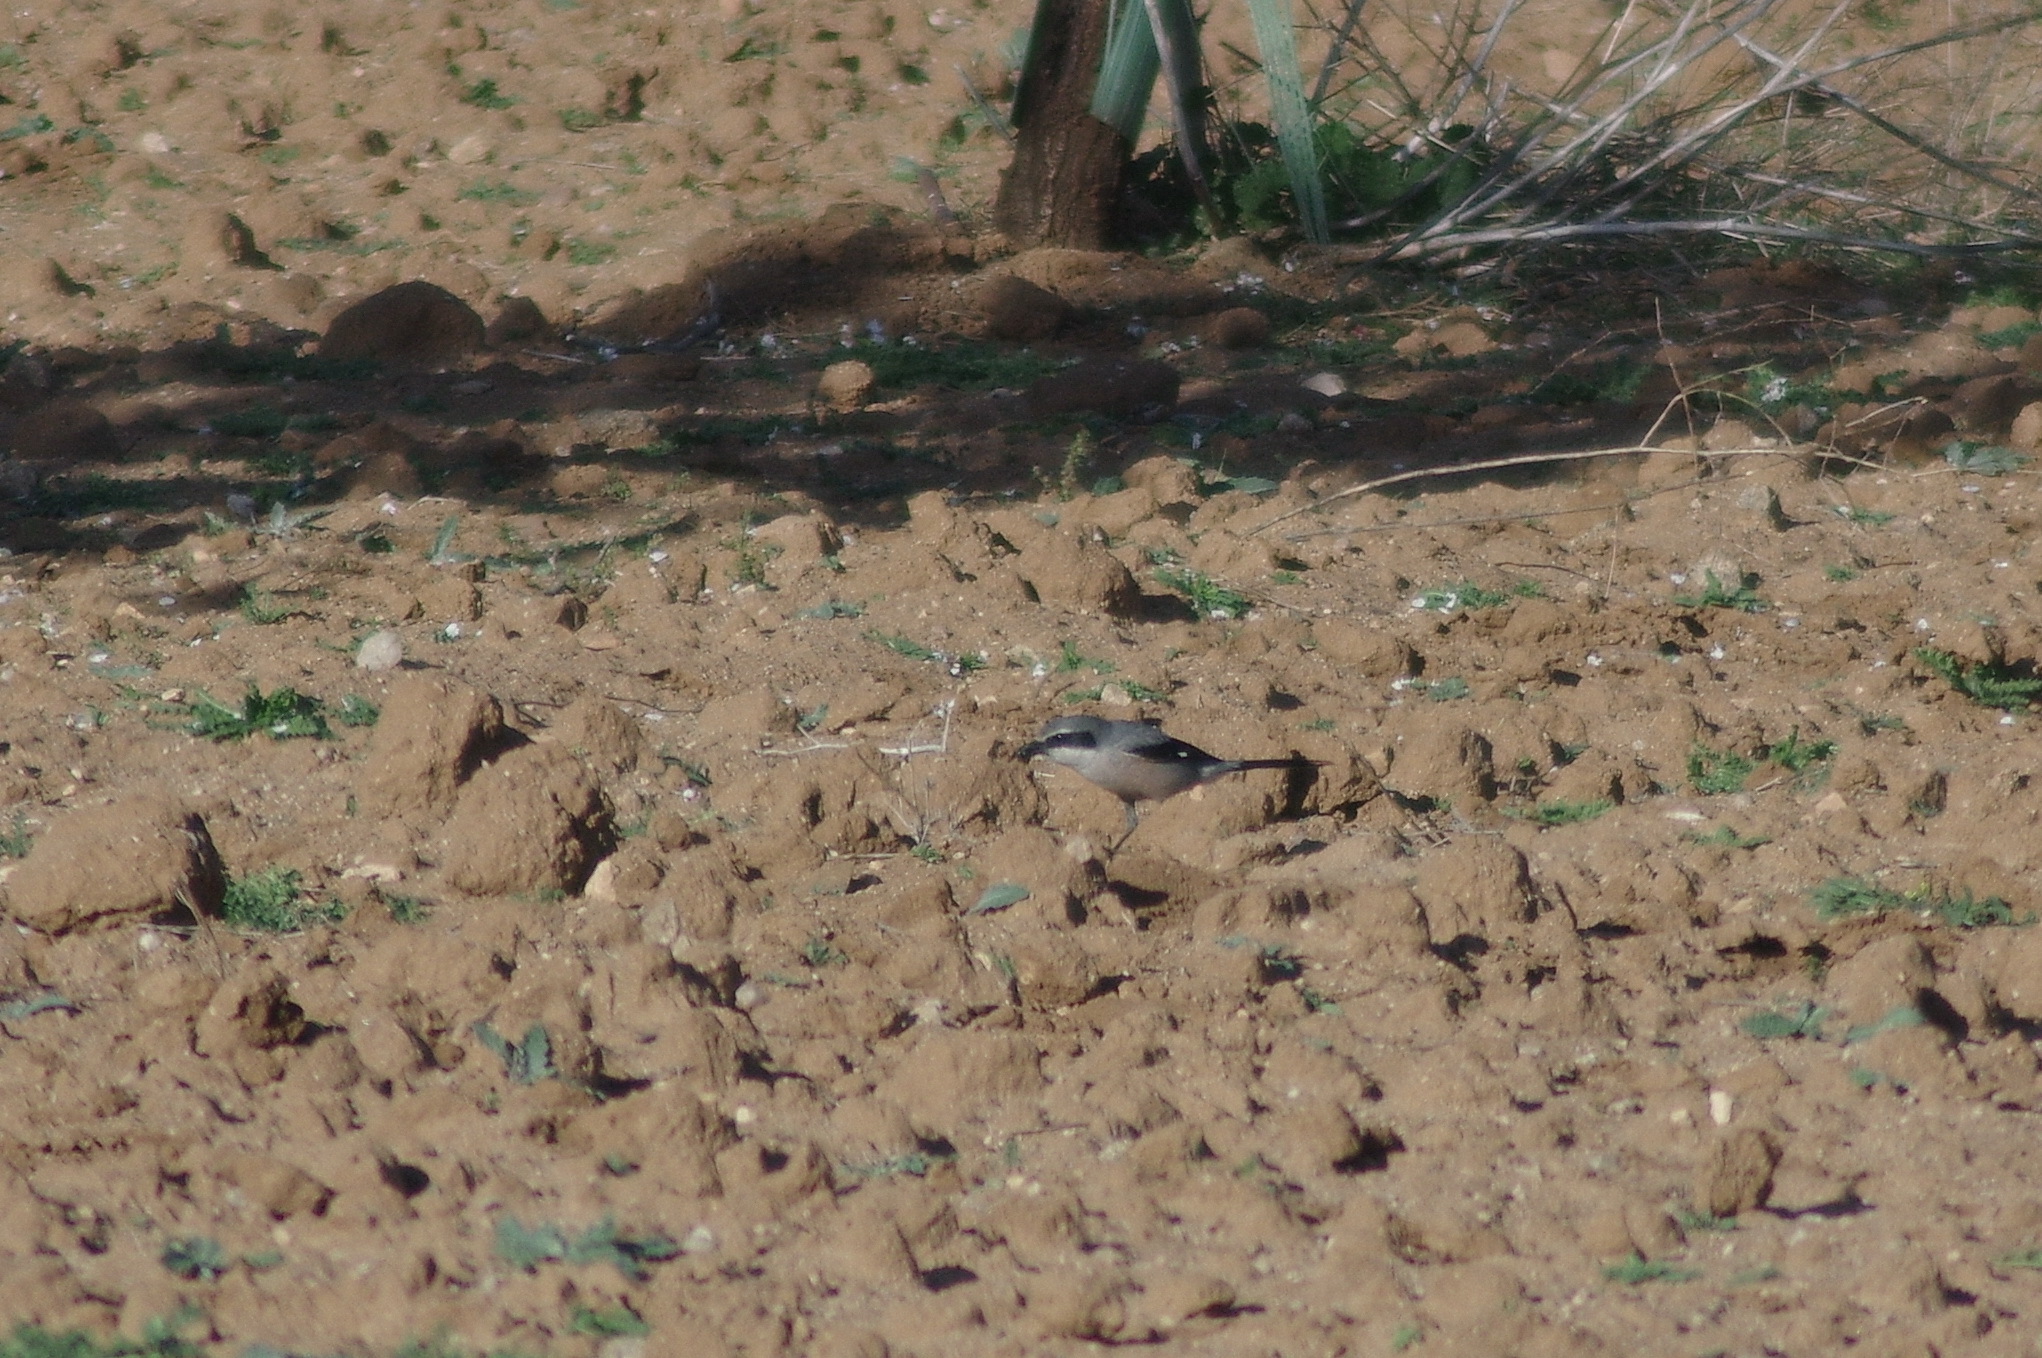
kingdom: Animalia
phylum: Chordata
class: Aves
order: Passeriformes
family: Laniidae
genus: Lanius
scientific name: Lanius meridionalis
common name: Iberian grey shrike
